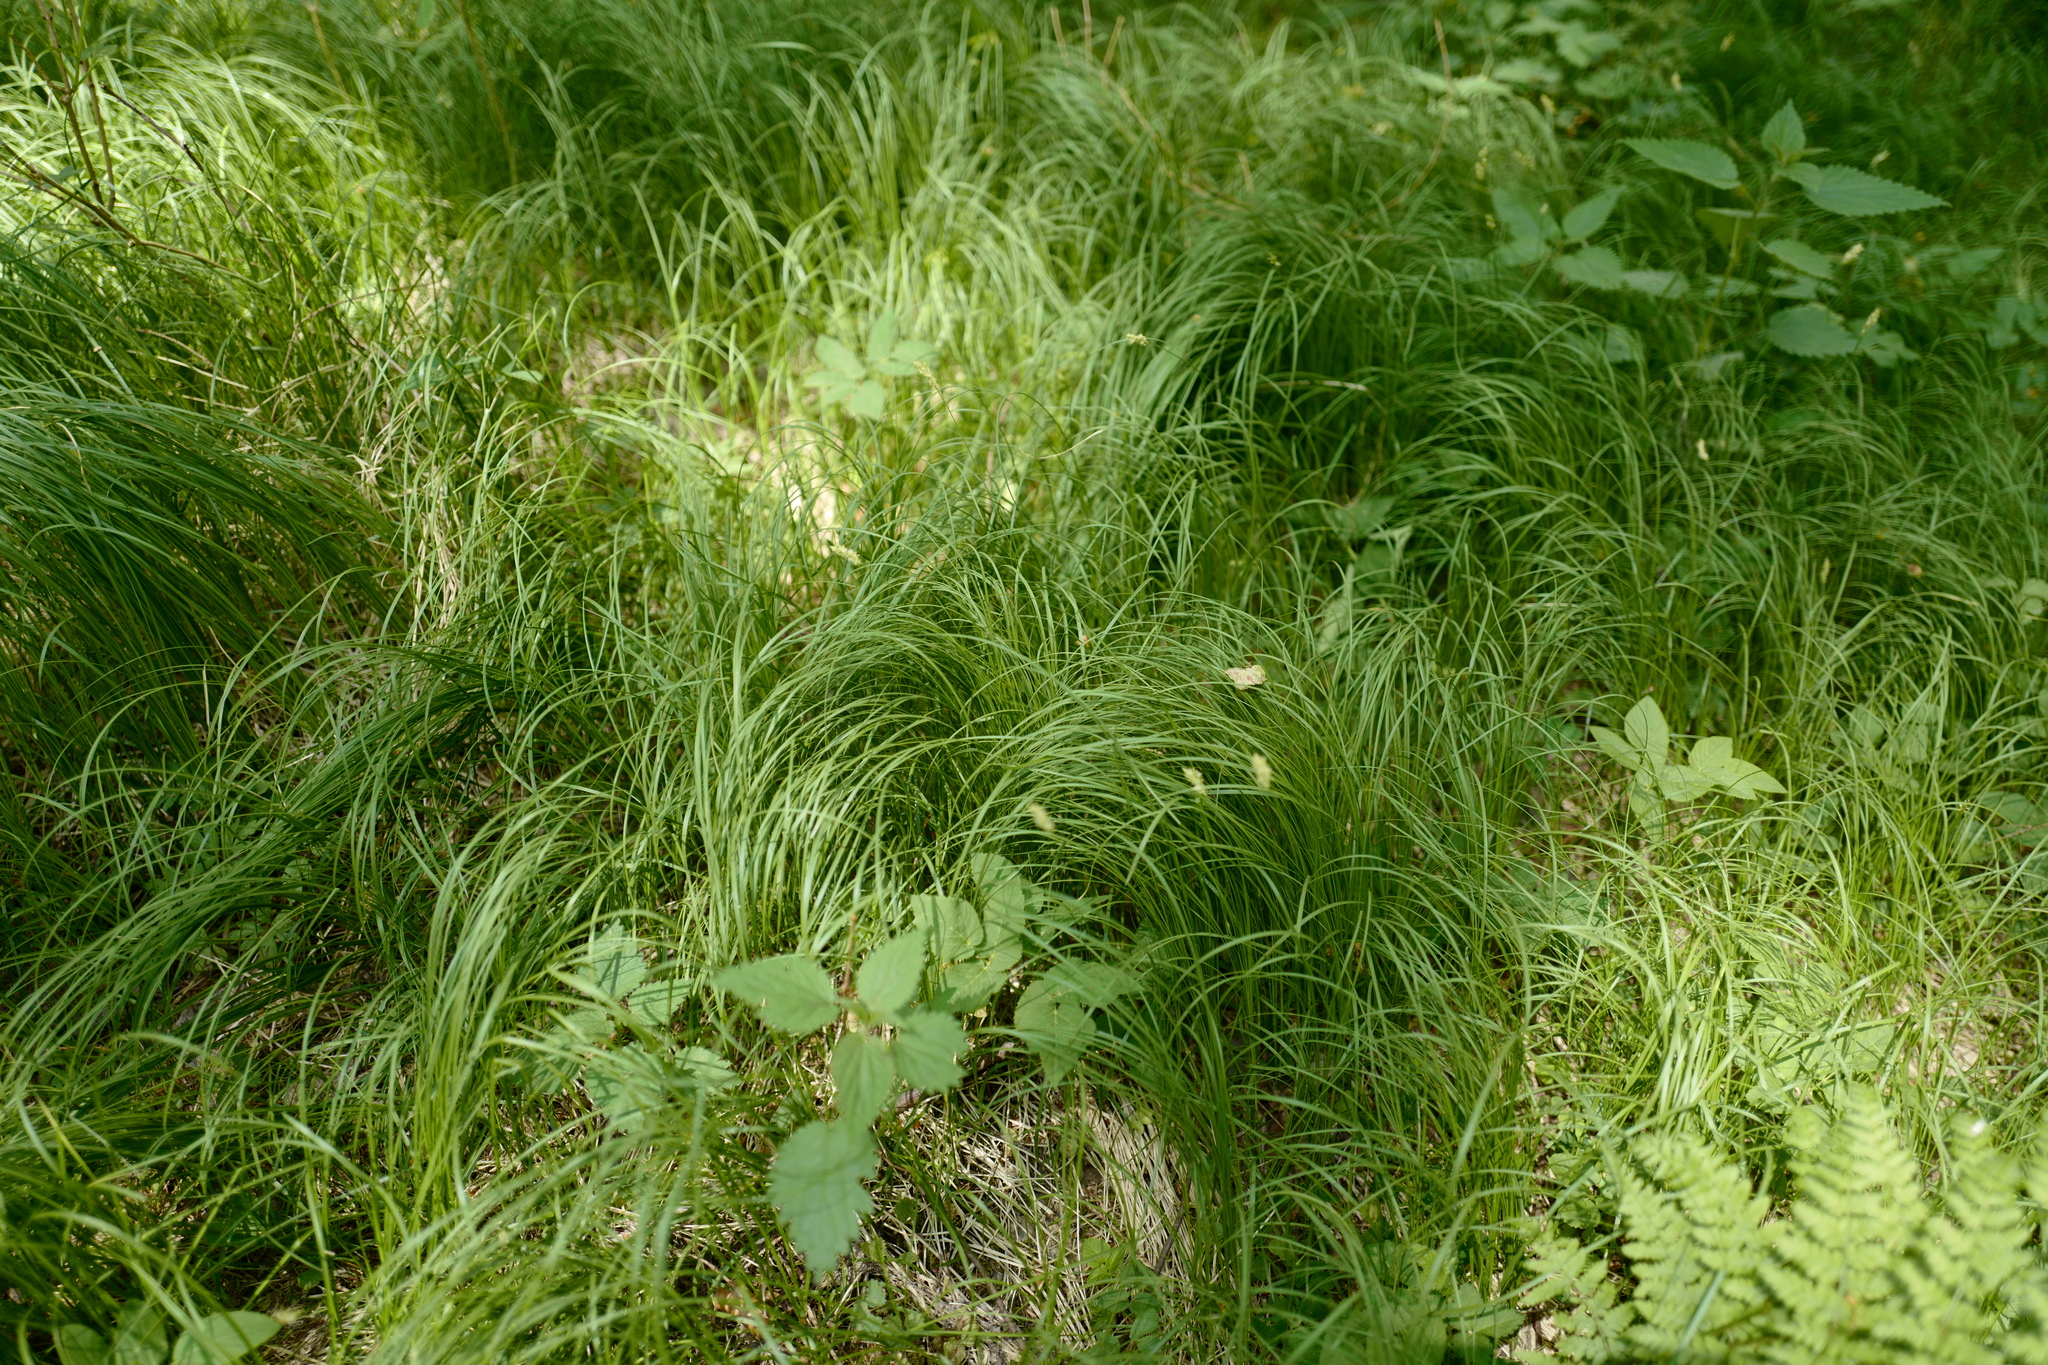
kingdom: Plantae
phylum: Tracheophyta
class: Liliopsida
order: Poales
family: Cyperaceae
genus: Carex
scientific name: Carex brizoides
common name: Quaking-grass sedge
